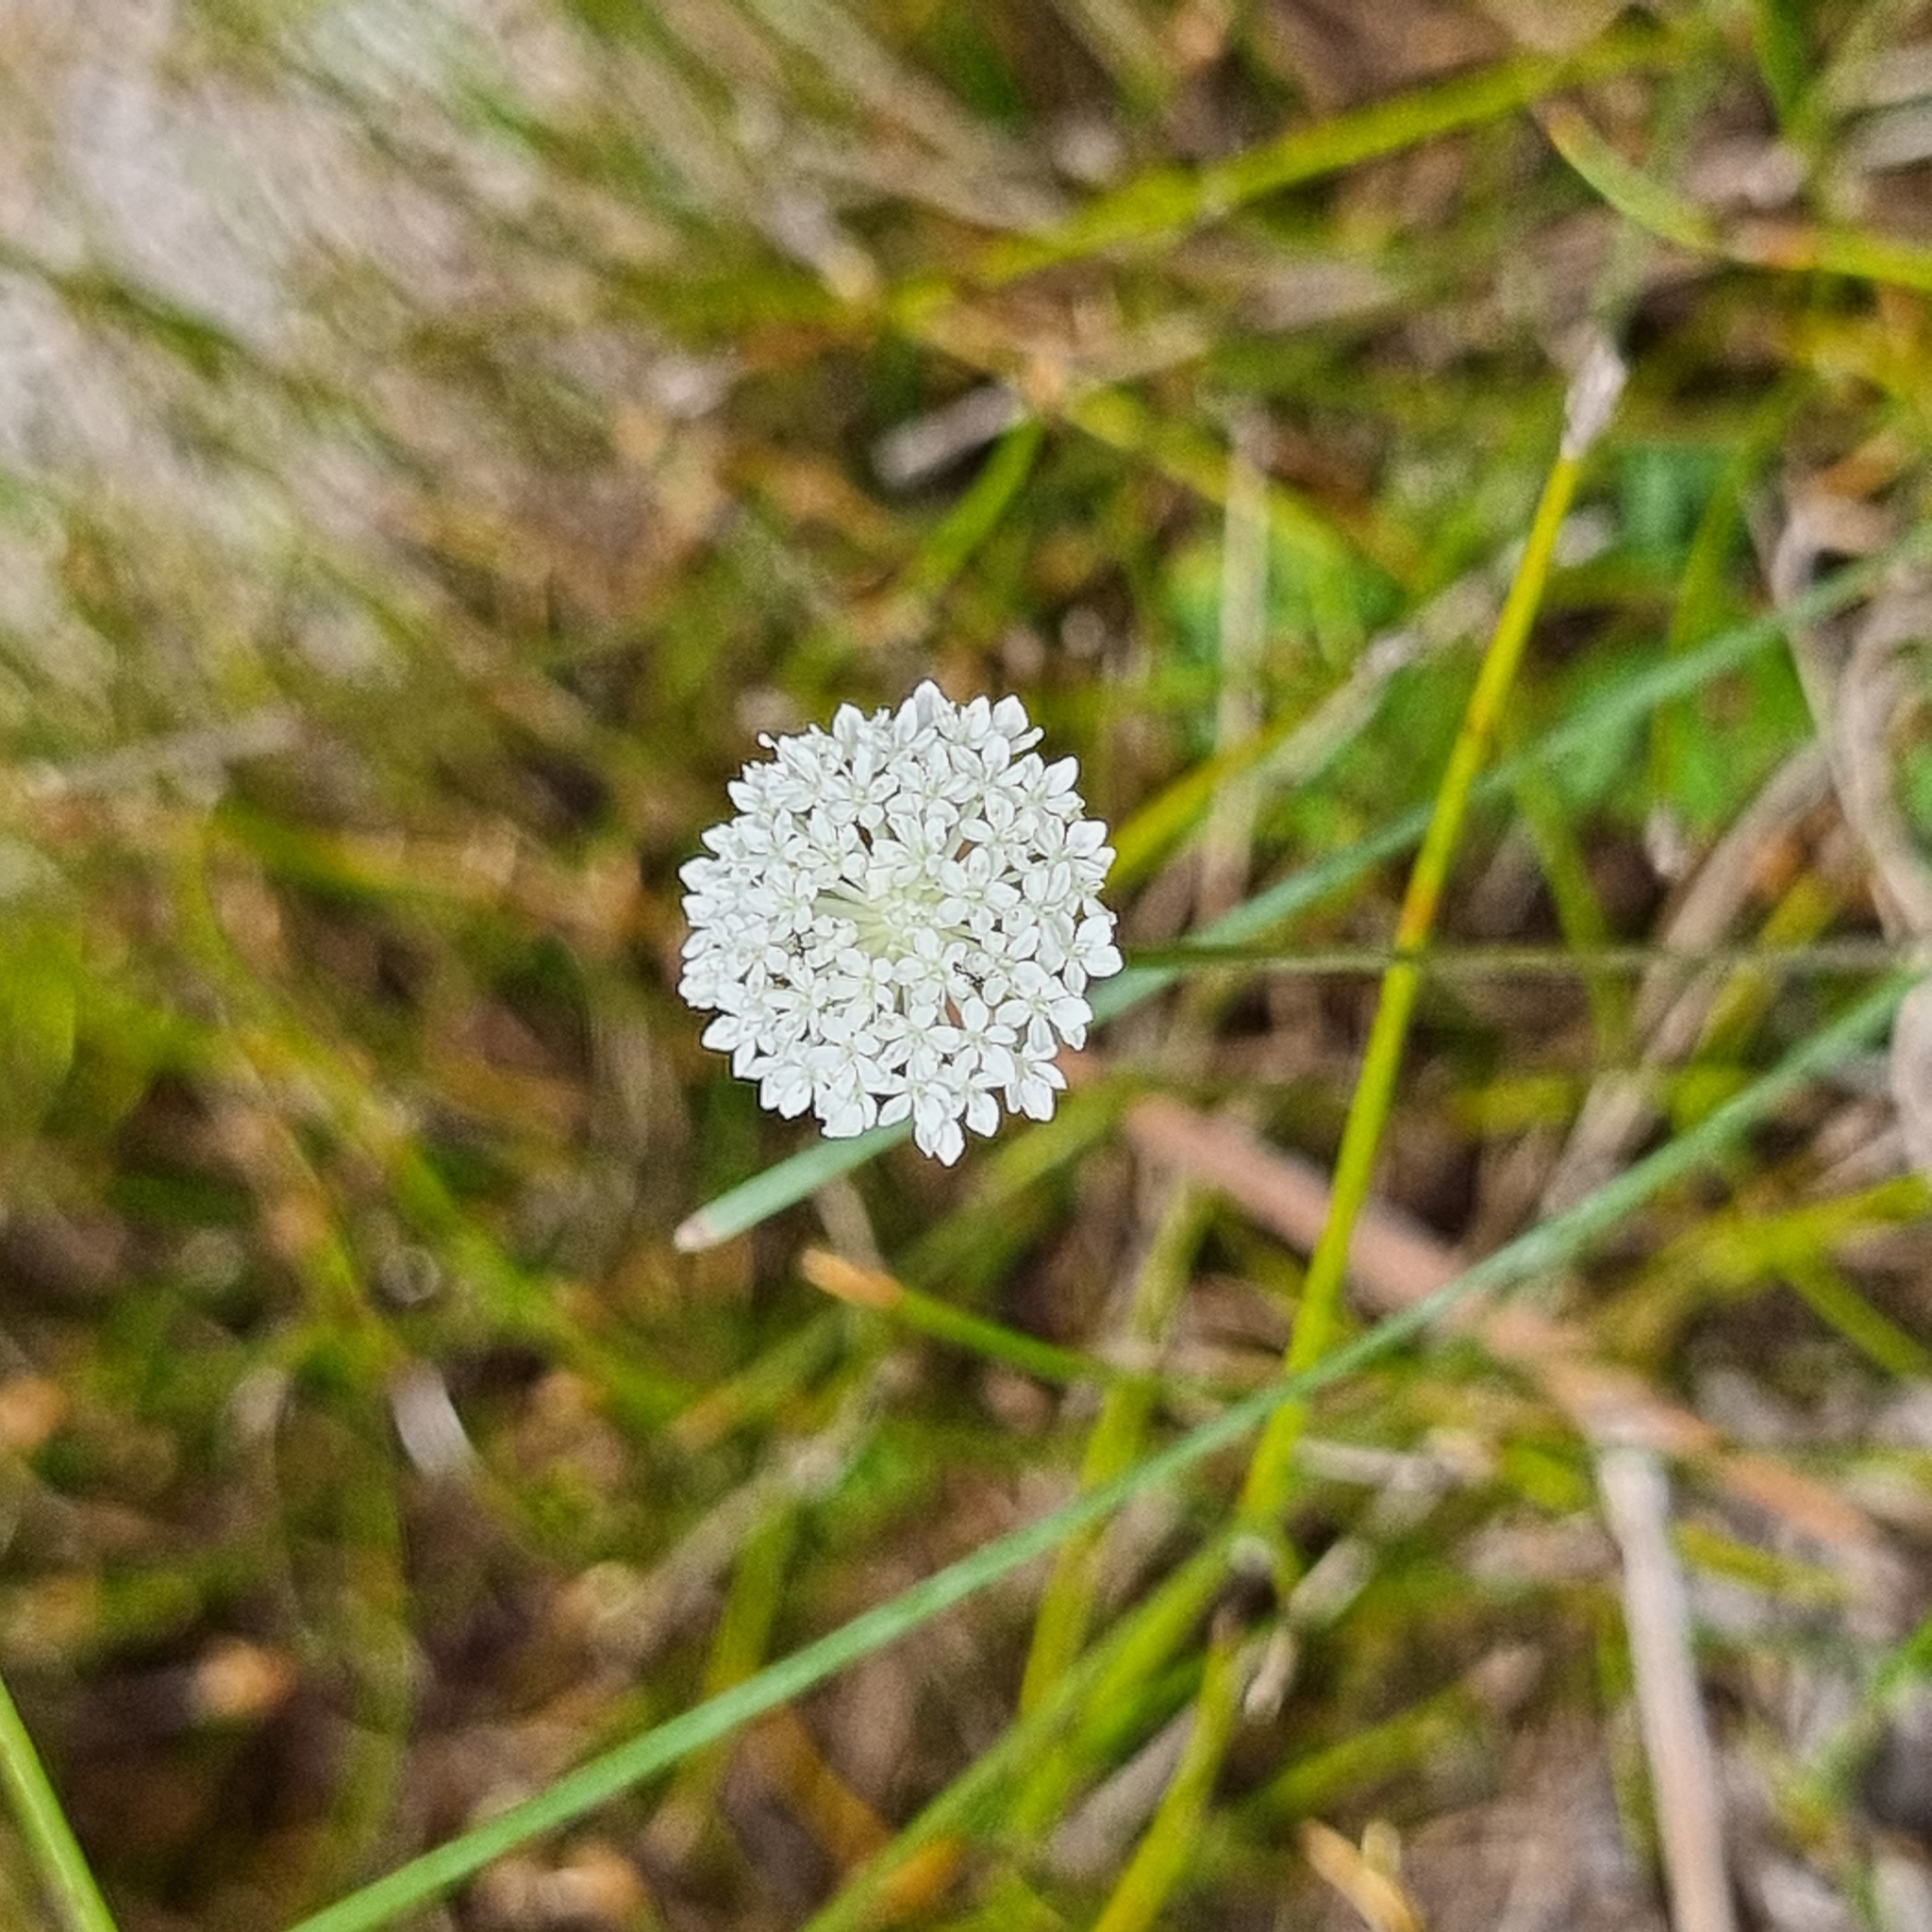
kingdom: Plantae
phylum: Tracheophyta
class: Magnoliopsida
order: Apiales
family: Araliaceae
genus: Trachymene
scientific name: Trachymene incisa
